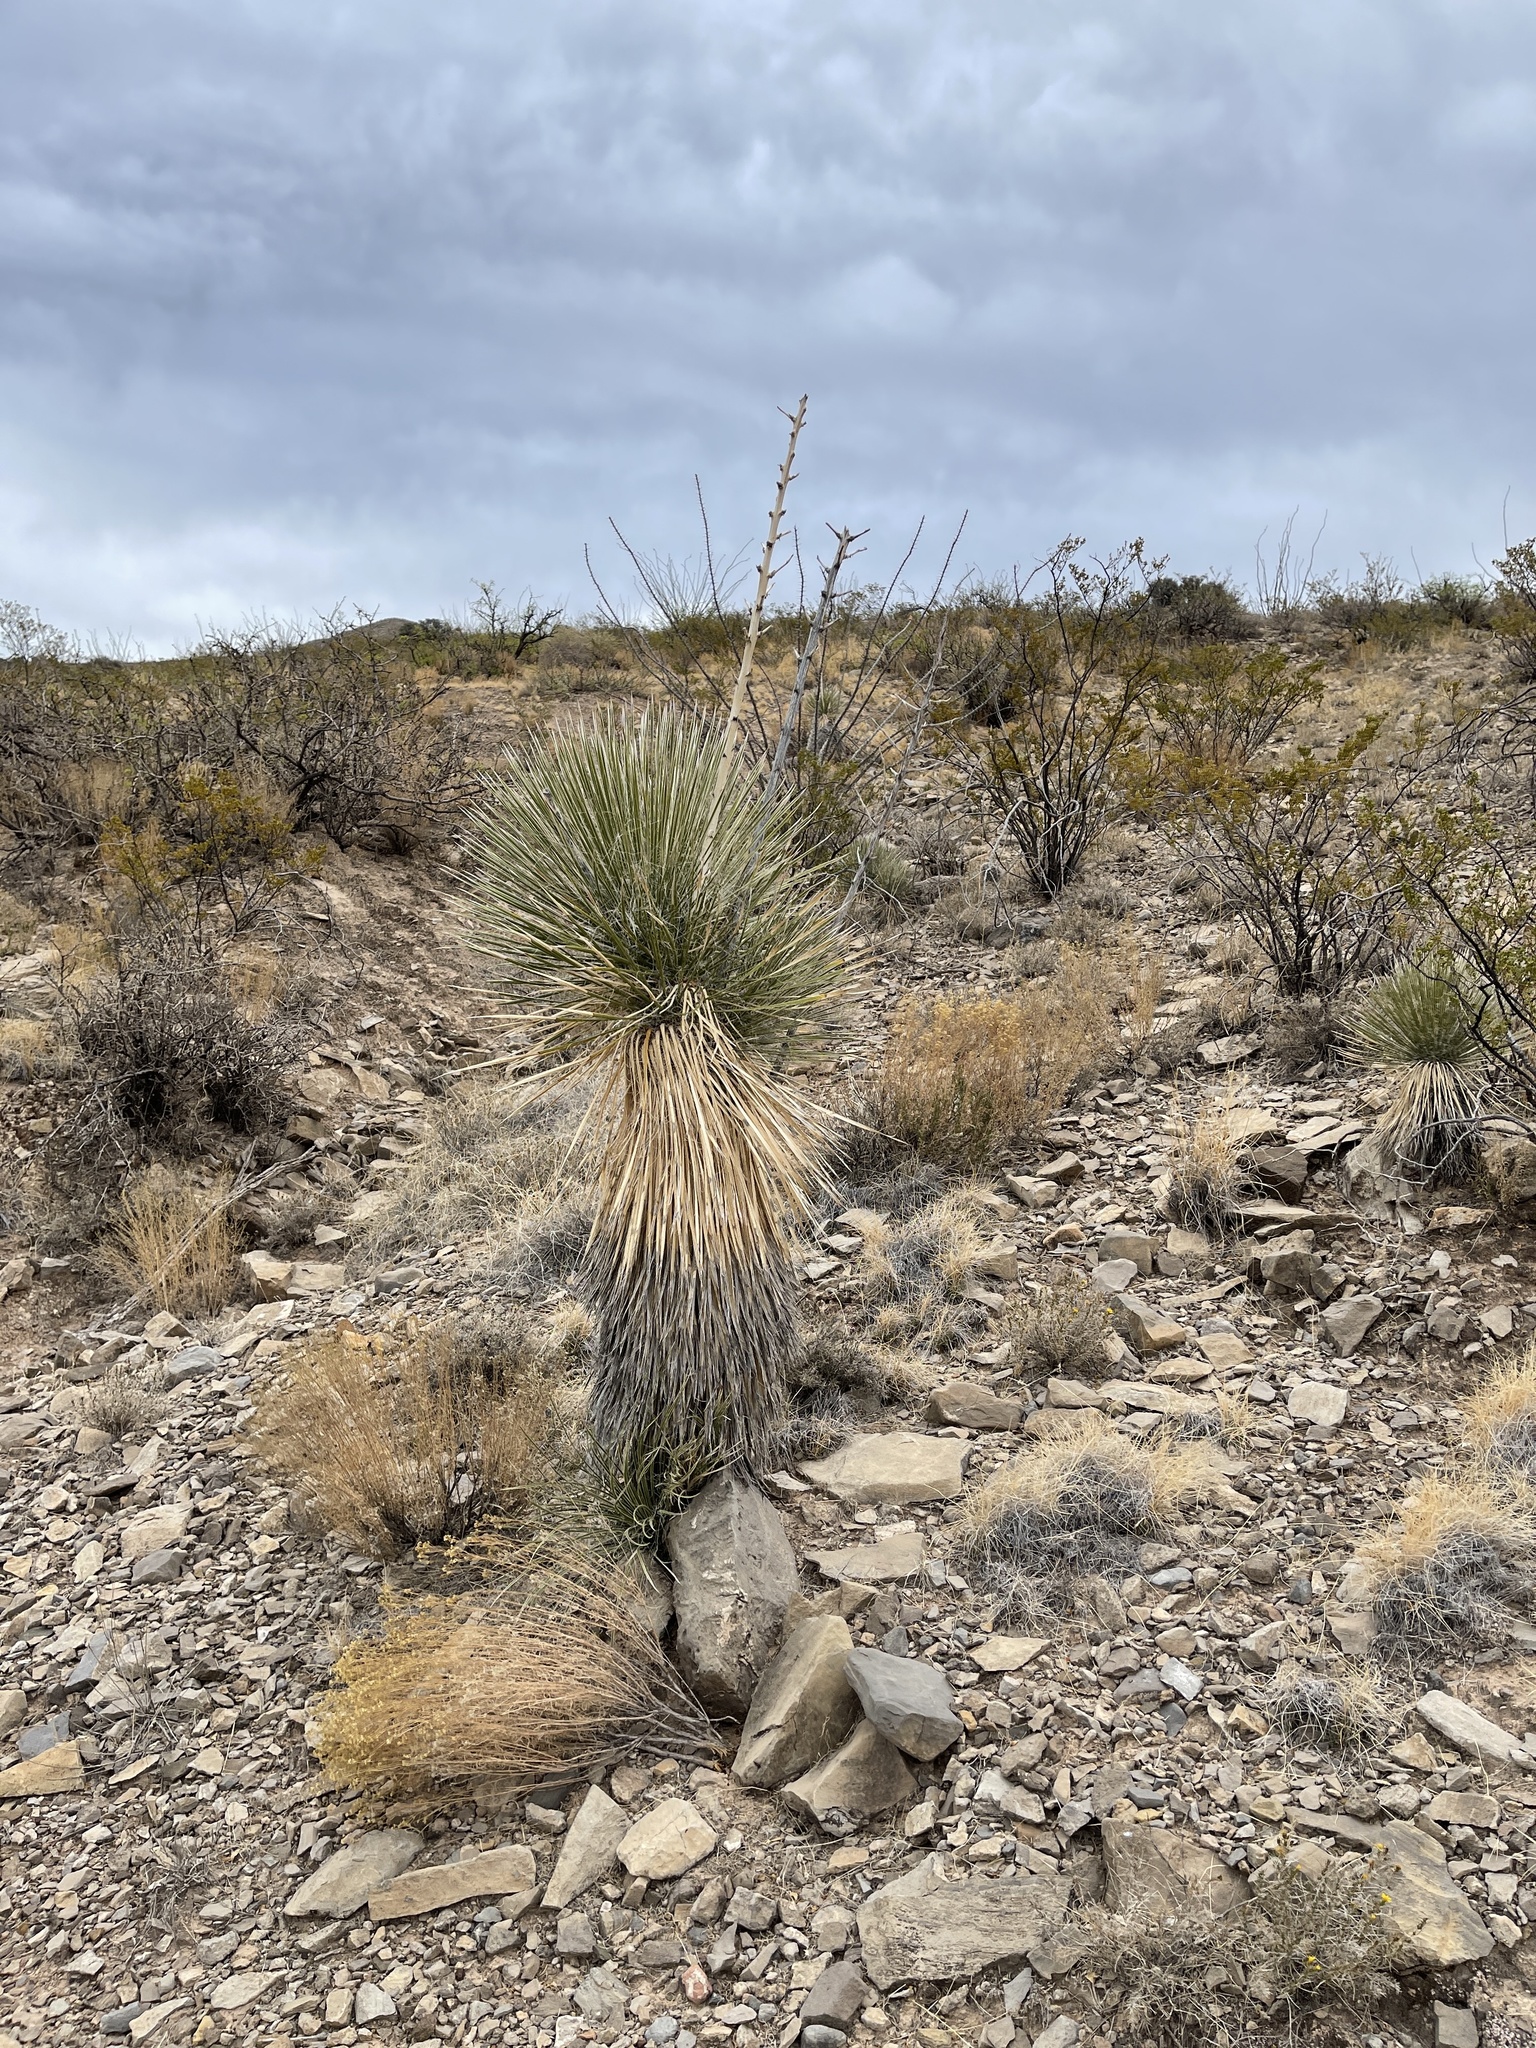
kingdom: Plantae
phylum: Tracheophyta
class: Liliopsida
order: Asparagales
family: Asparagaceae
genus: Yucca
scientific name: Yucca elata
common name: Palmella
